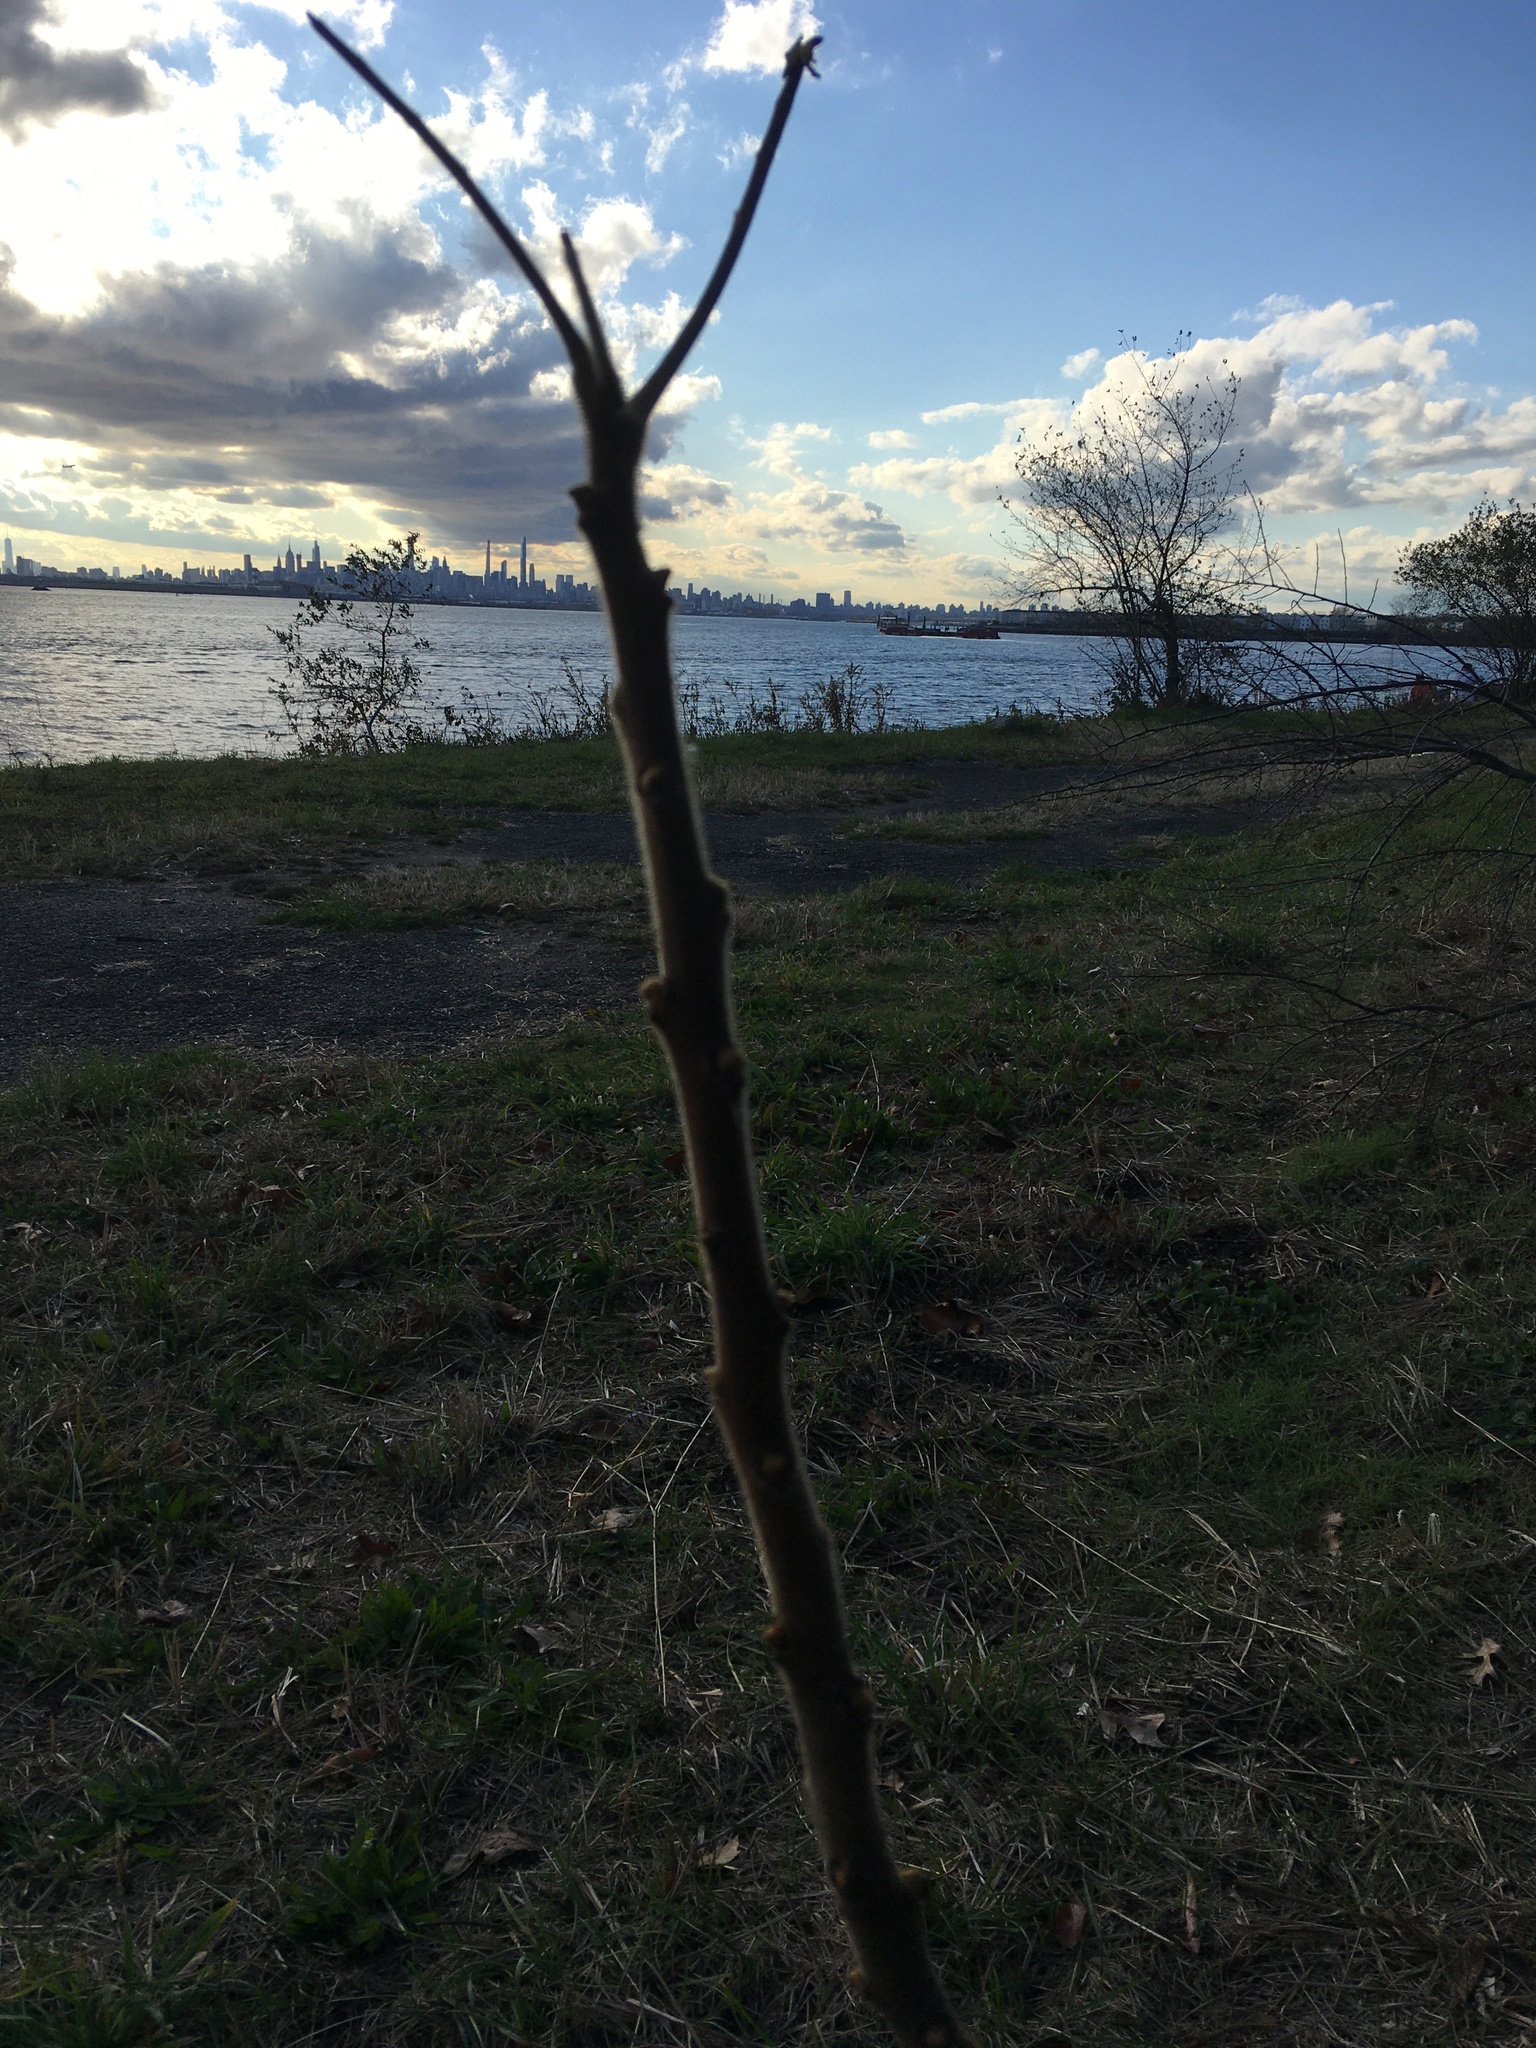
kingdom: Plantae
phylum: Tracheophyta
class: Magnoliopsida
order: Sapindales
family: Anacardiaceae
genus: Rhus
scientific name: Rhus typhina
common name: Staghorn sumac
